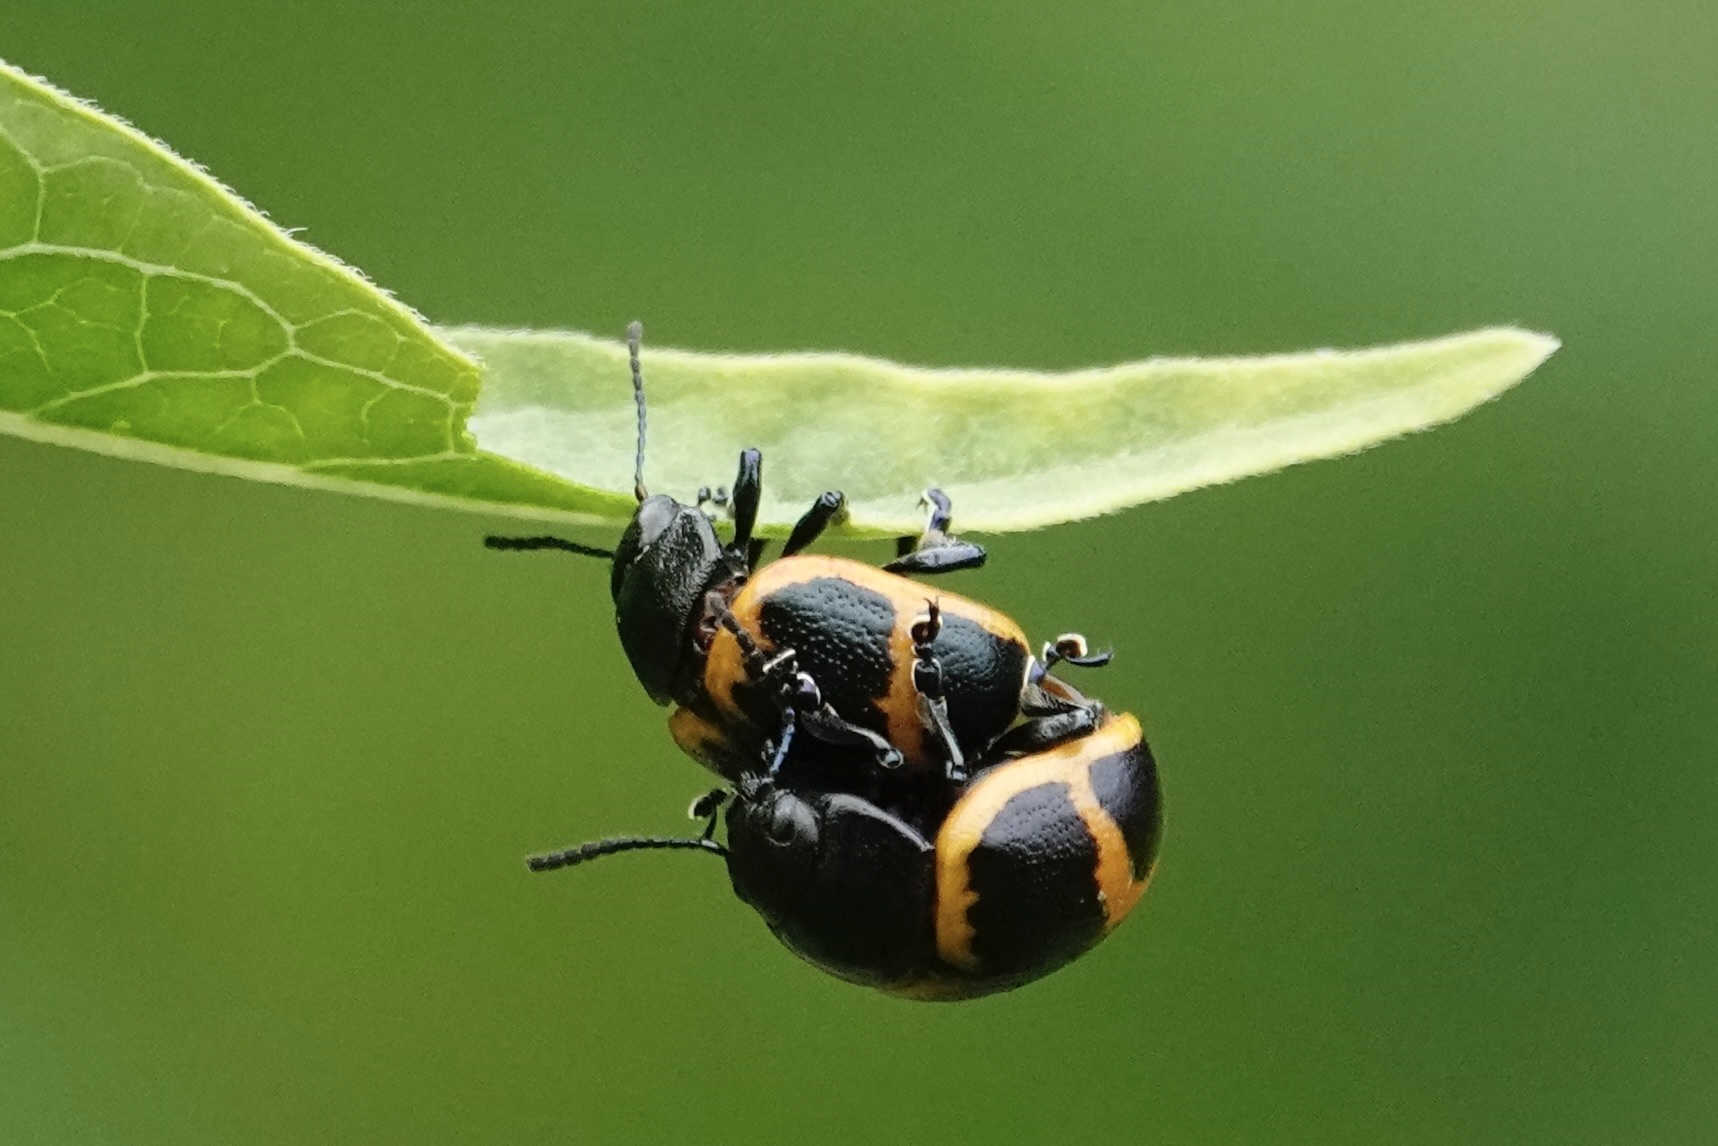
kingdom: Animalia
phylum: Arthropoda
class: Insecta
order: Coleoptera
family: Chrysomelidae
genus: Labidomera
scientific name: Labidomera clivicollis
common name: Swamp milkweed leaf beetle
